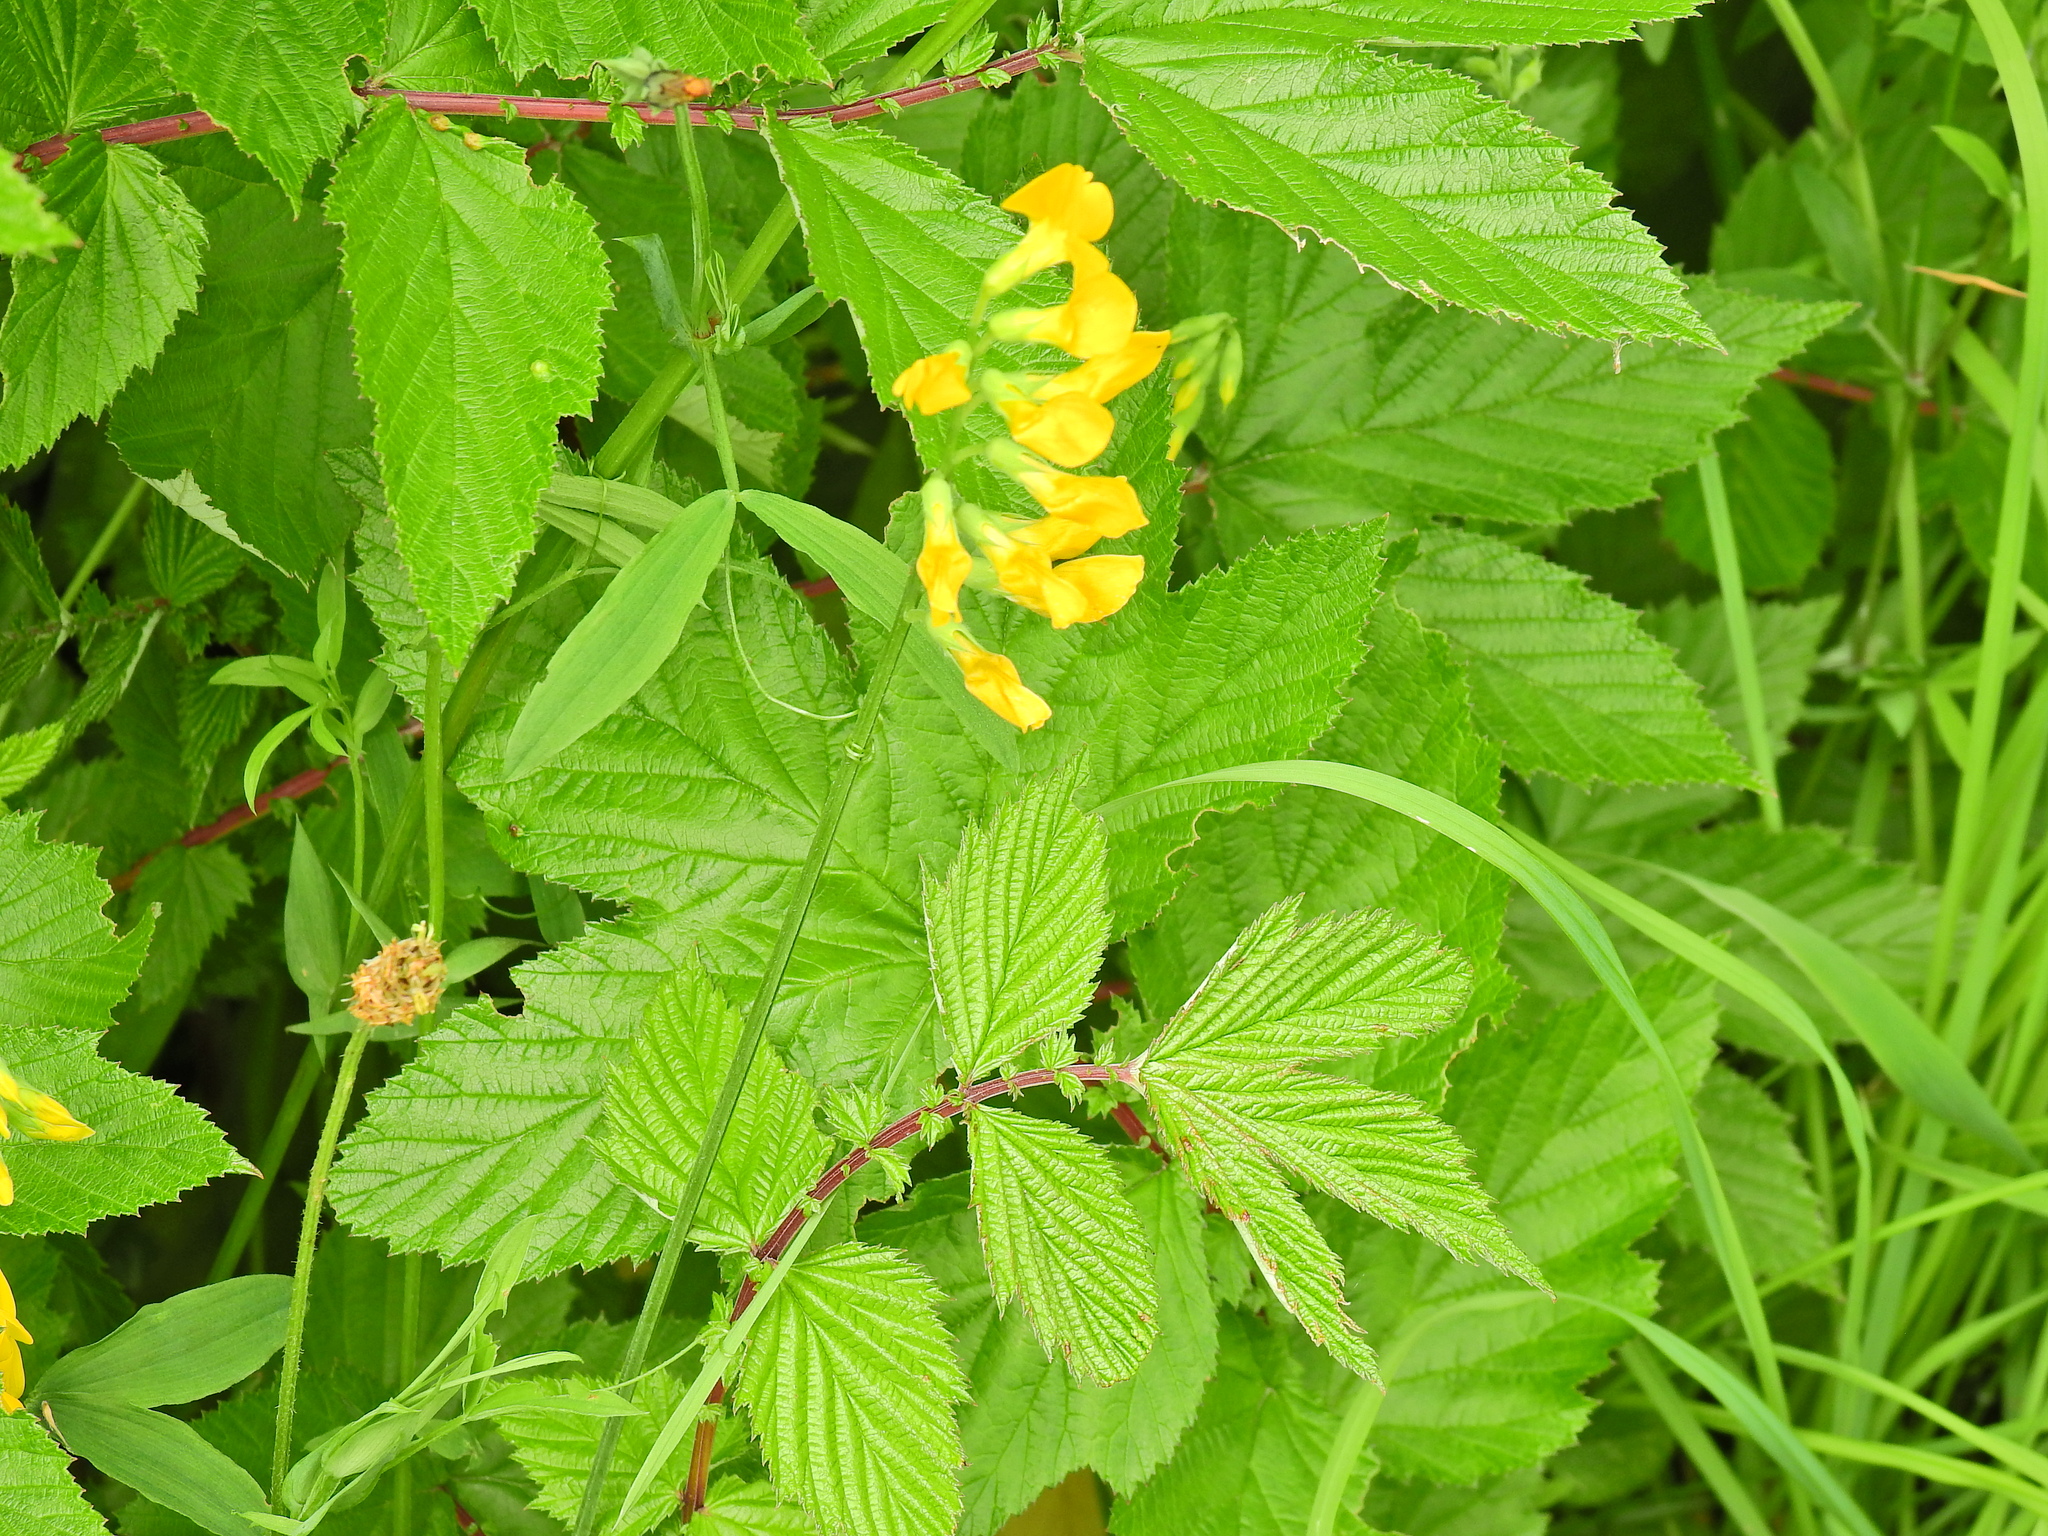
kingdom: Plantae
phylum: Tracheophyta
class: Magnoliopsida
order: Fabales
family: Fabaceae
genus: Lathyrus
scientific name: Lathyrus pratensis
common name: Meadow vetchling
